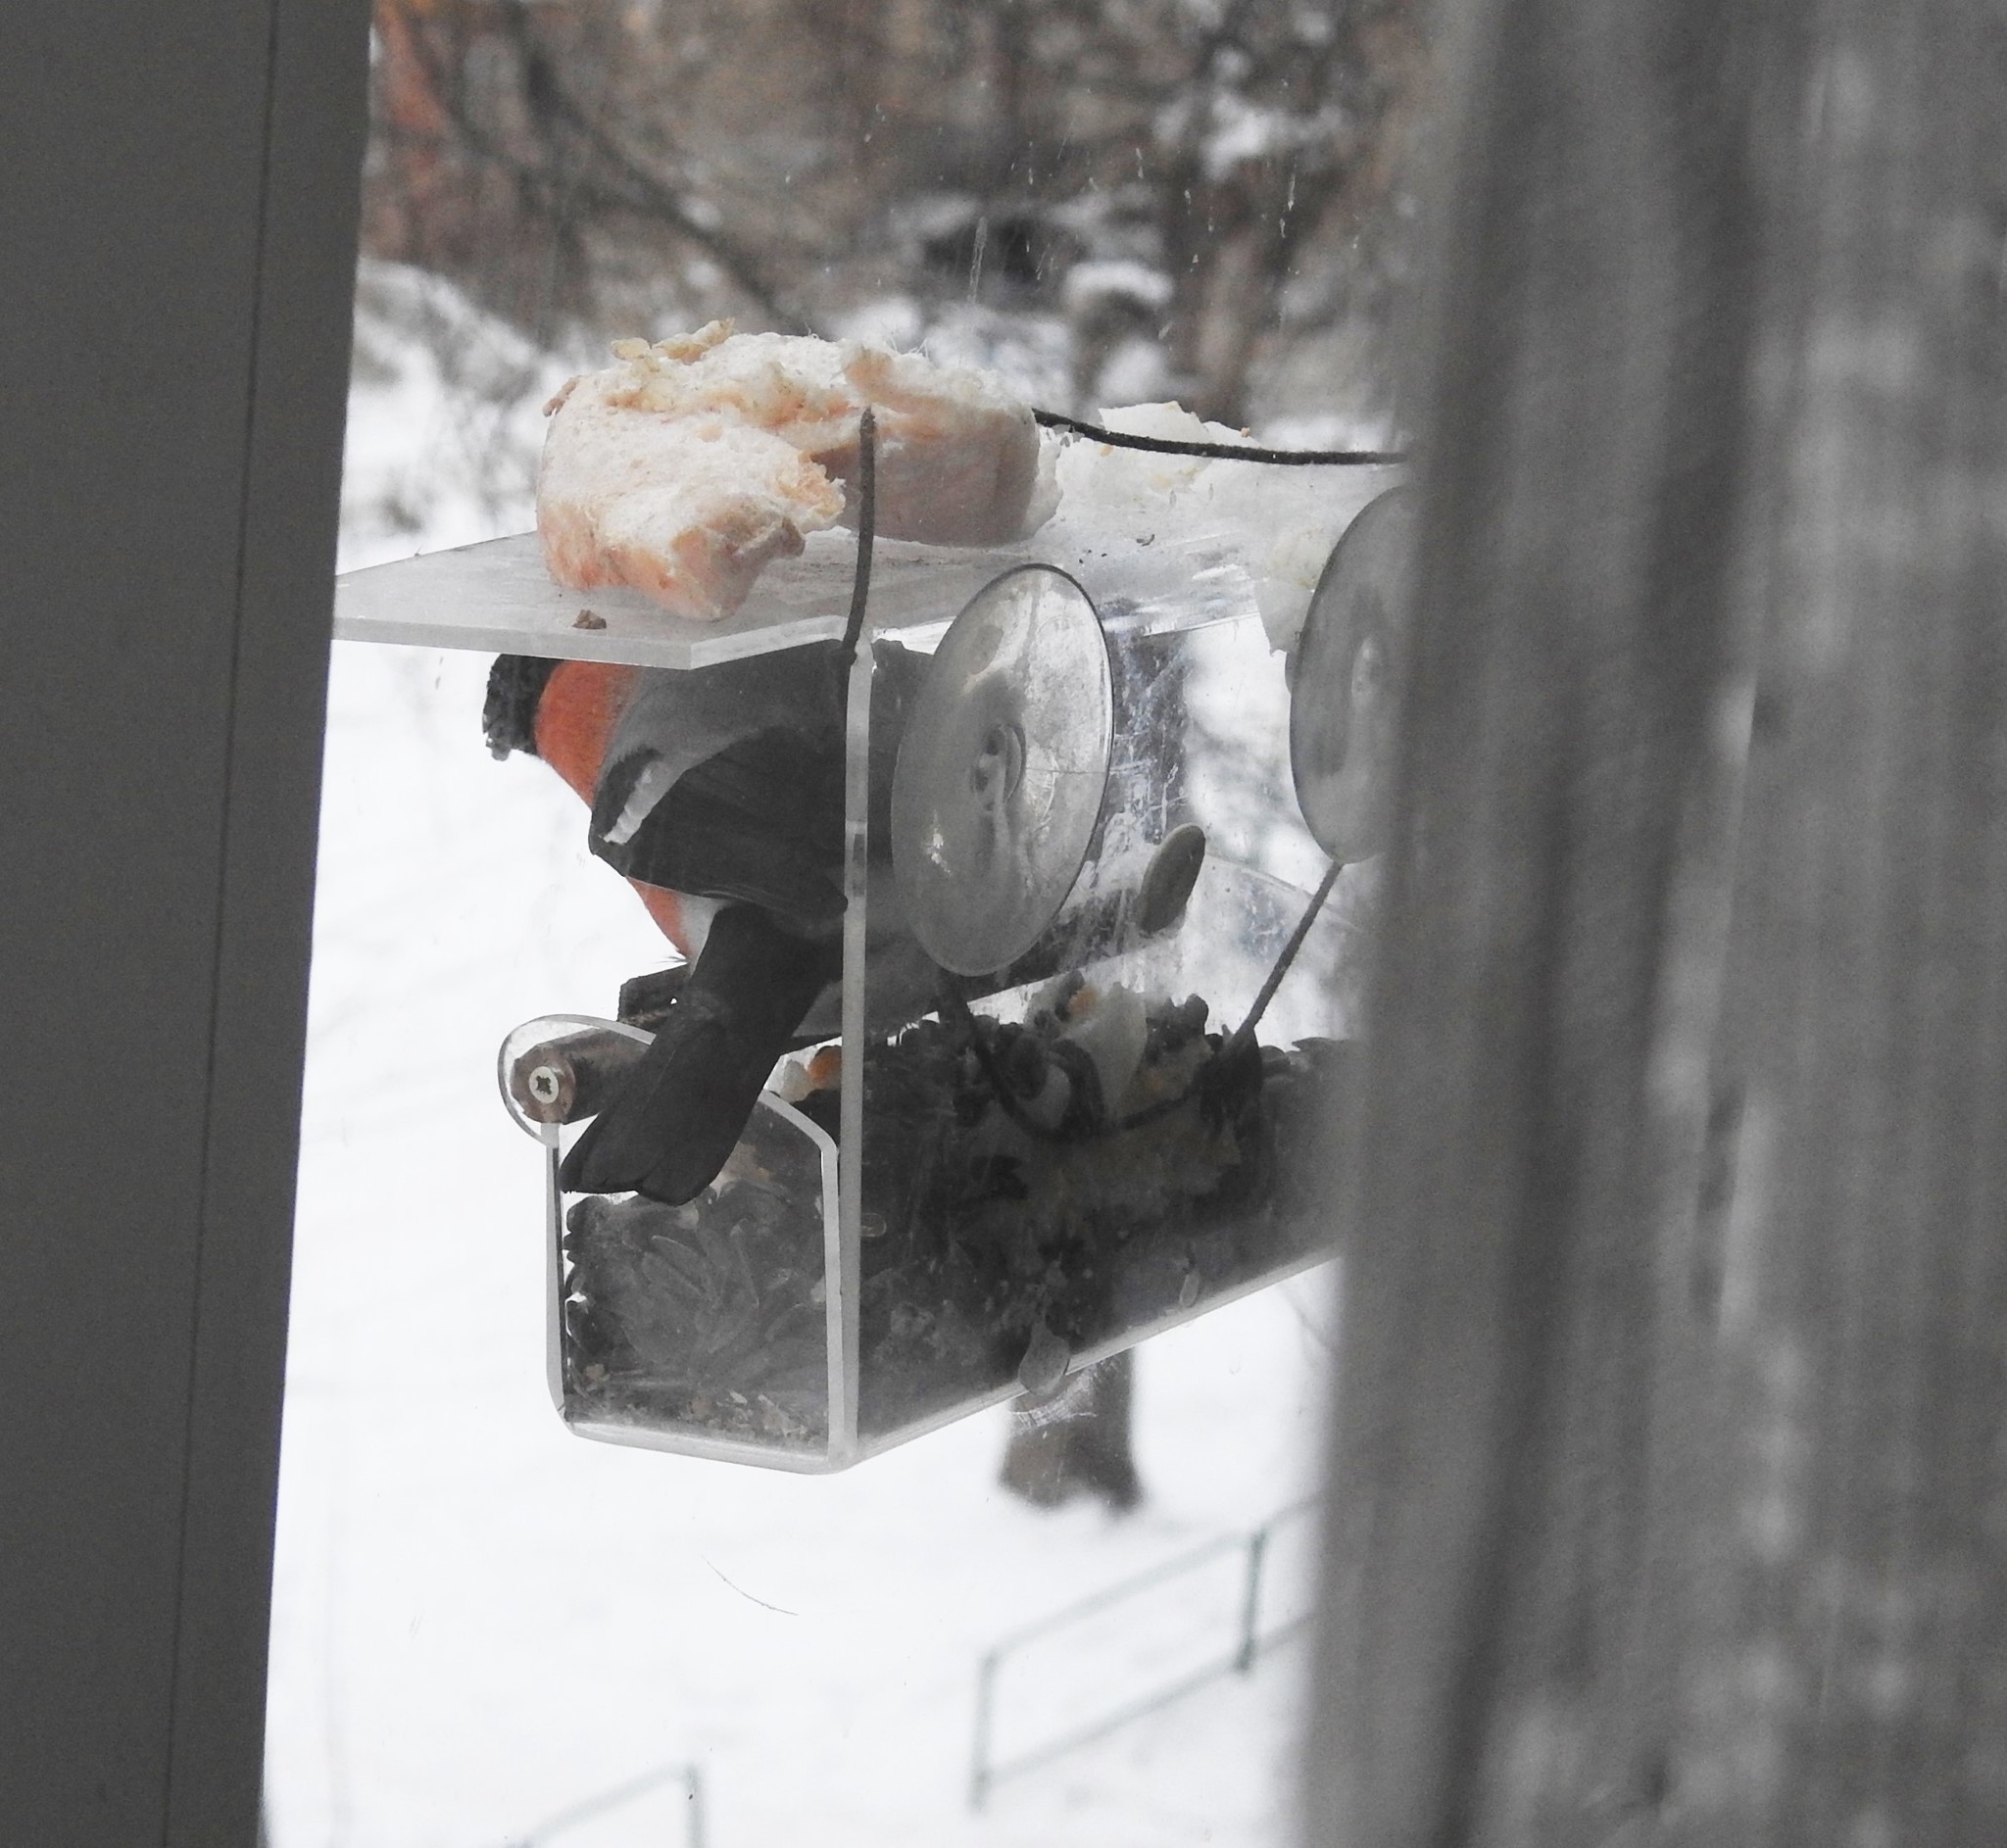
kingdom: Animalia
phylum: Chordata
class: Aves
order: Passeriformes
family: Fringillidae
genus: Pyrrhula
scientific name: Pyrrhula pyrrhula
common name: Eurasian bullfinch
